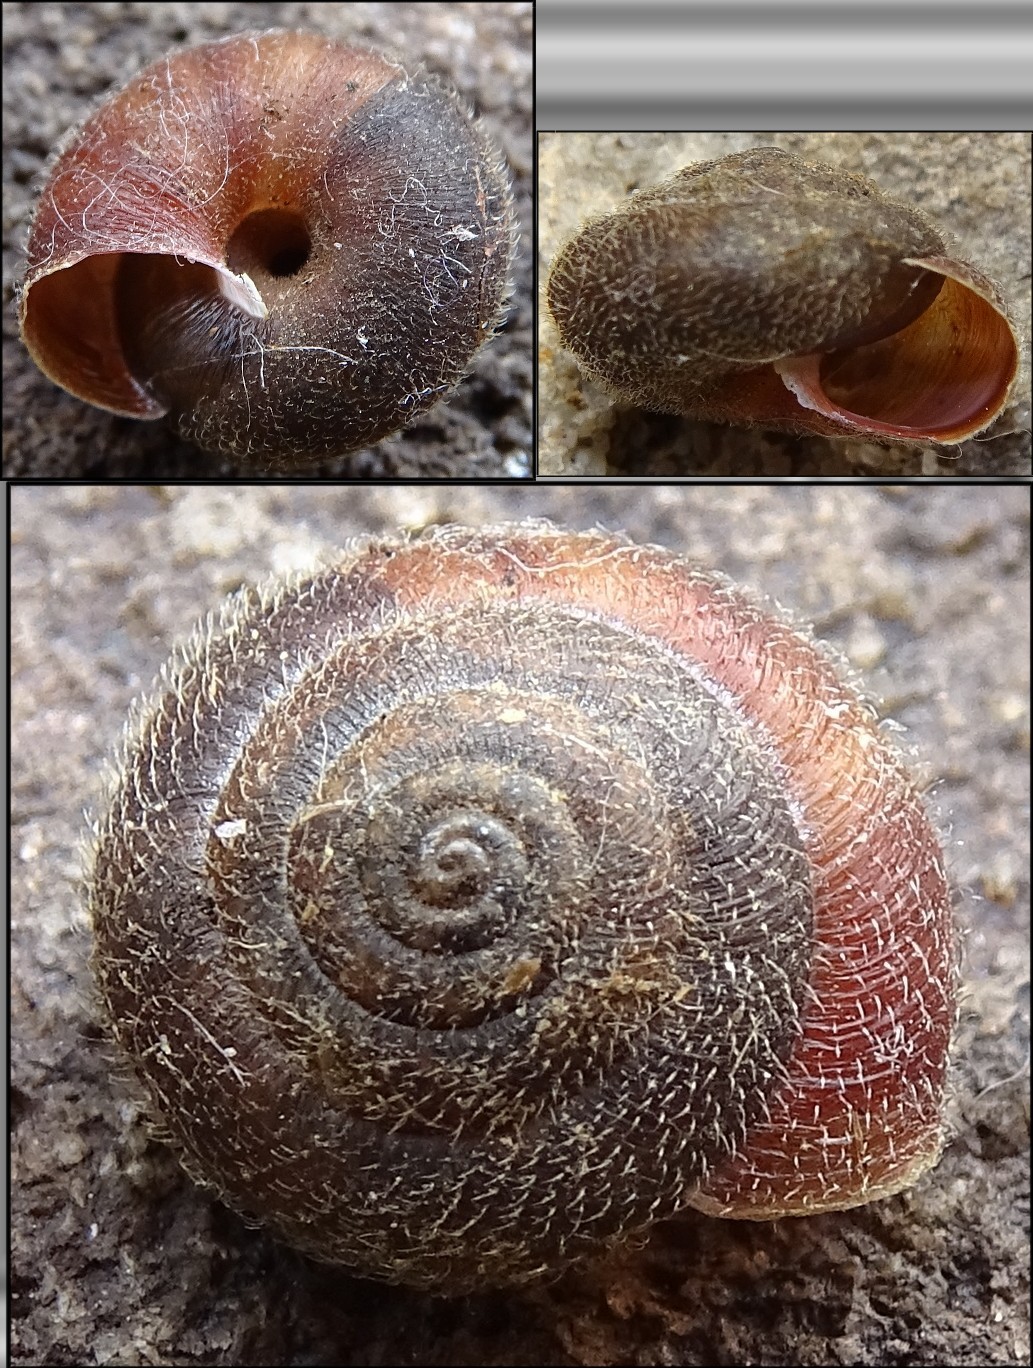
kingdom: Animalia
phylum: Mollusca
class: Gastropoda
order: Stylommatophora
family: Hygromiidae
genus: Trochulus
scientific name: Trochulus hispidus
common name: Hairy snail
